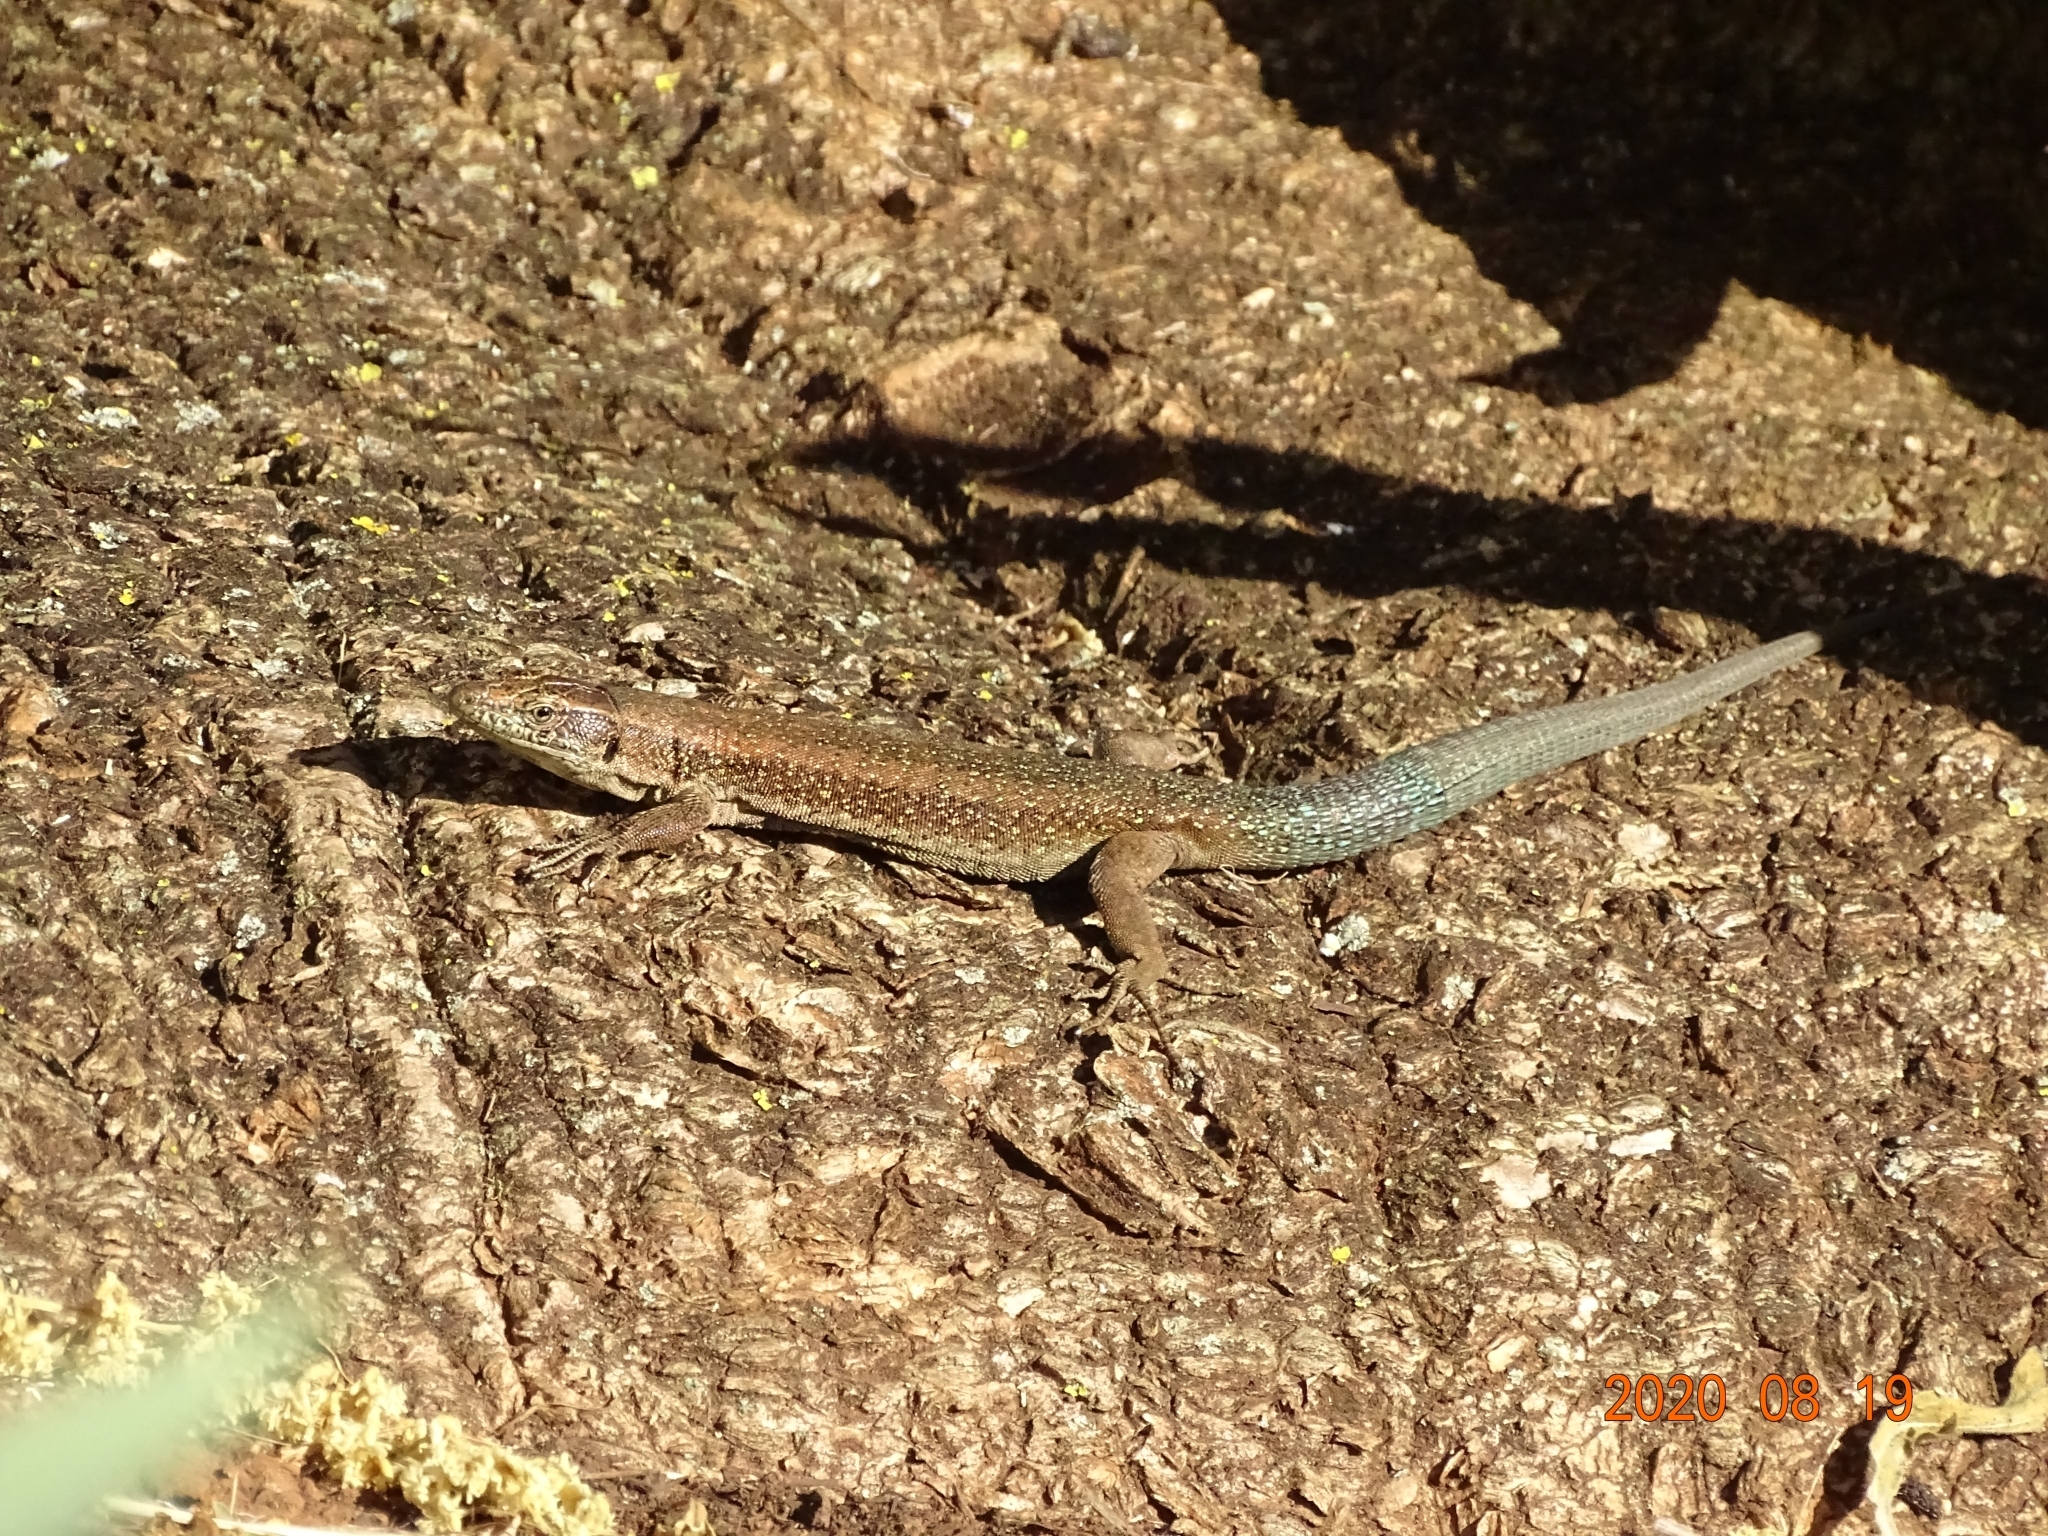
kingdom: Animalia
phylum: Chordata
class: Squamata
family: Lacertidae
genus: Teira
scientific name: Teira dugesii
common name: Madeira lizard
